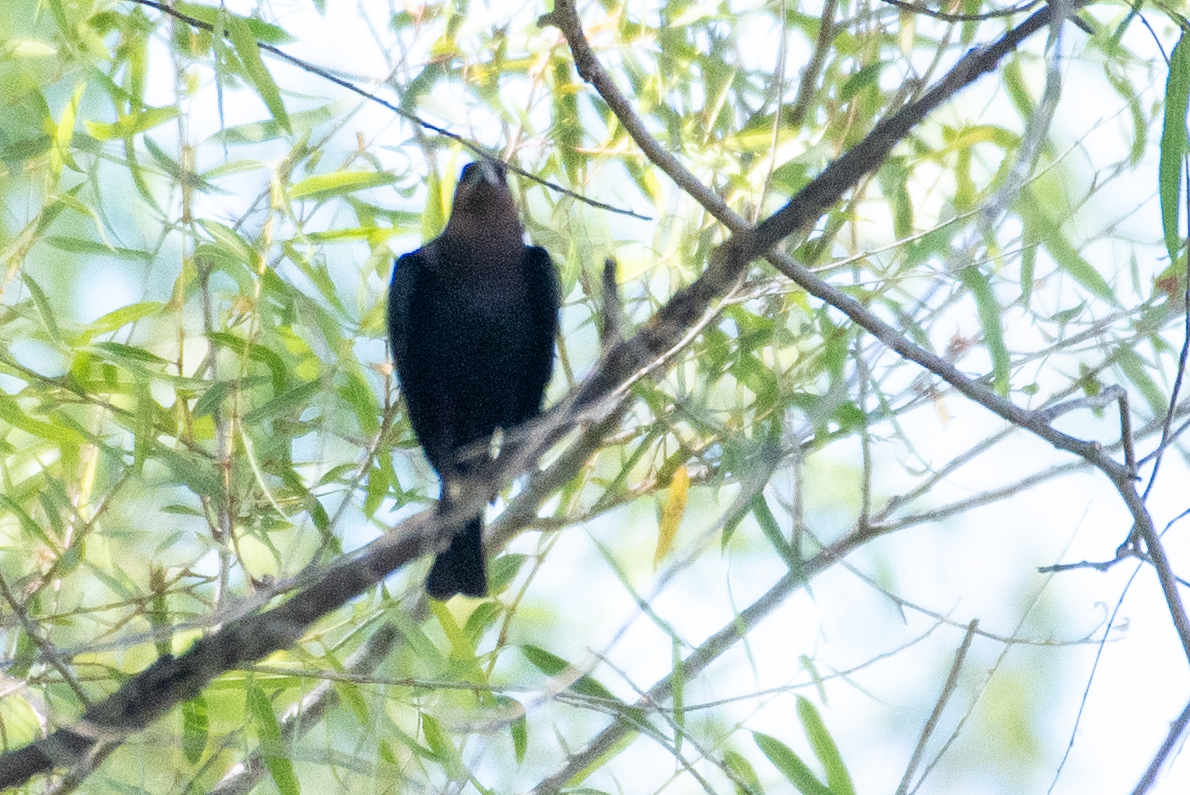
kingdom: Animalia
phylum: Chordata
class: Aves
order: Passeriformes
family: Icteridae
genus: Molothrus
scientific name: Molothrus ater
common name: Brown-headed cowbird
